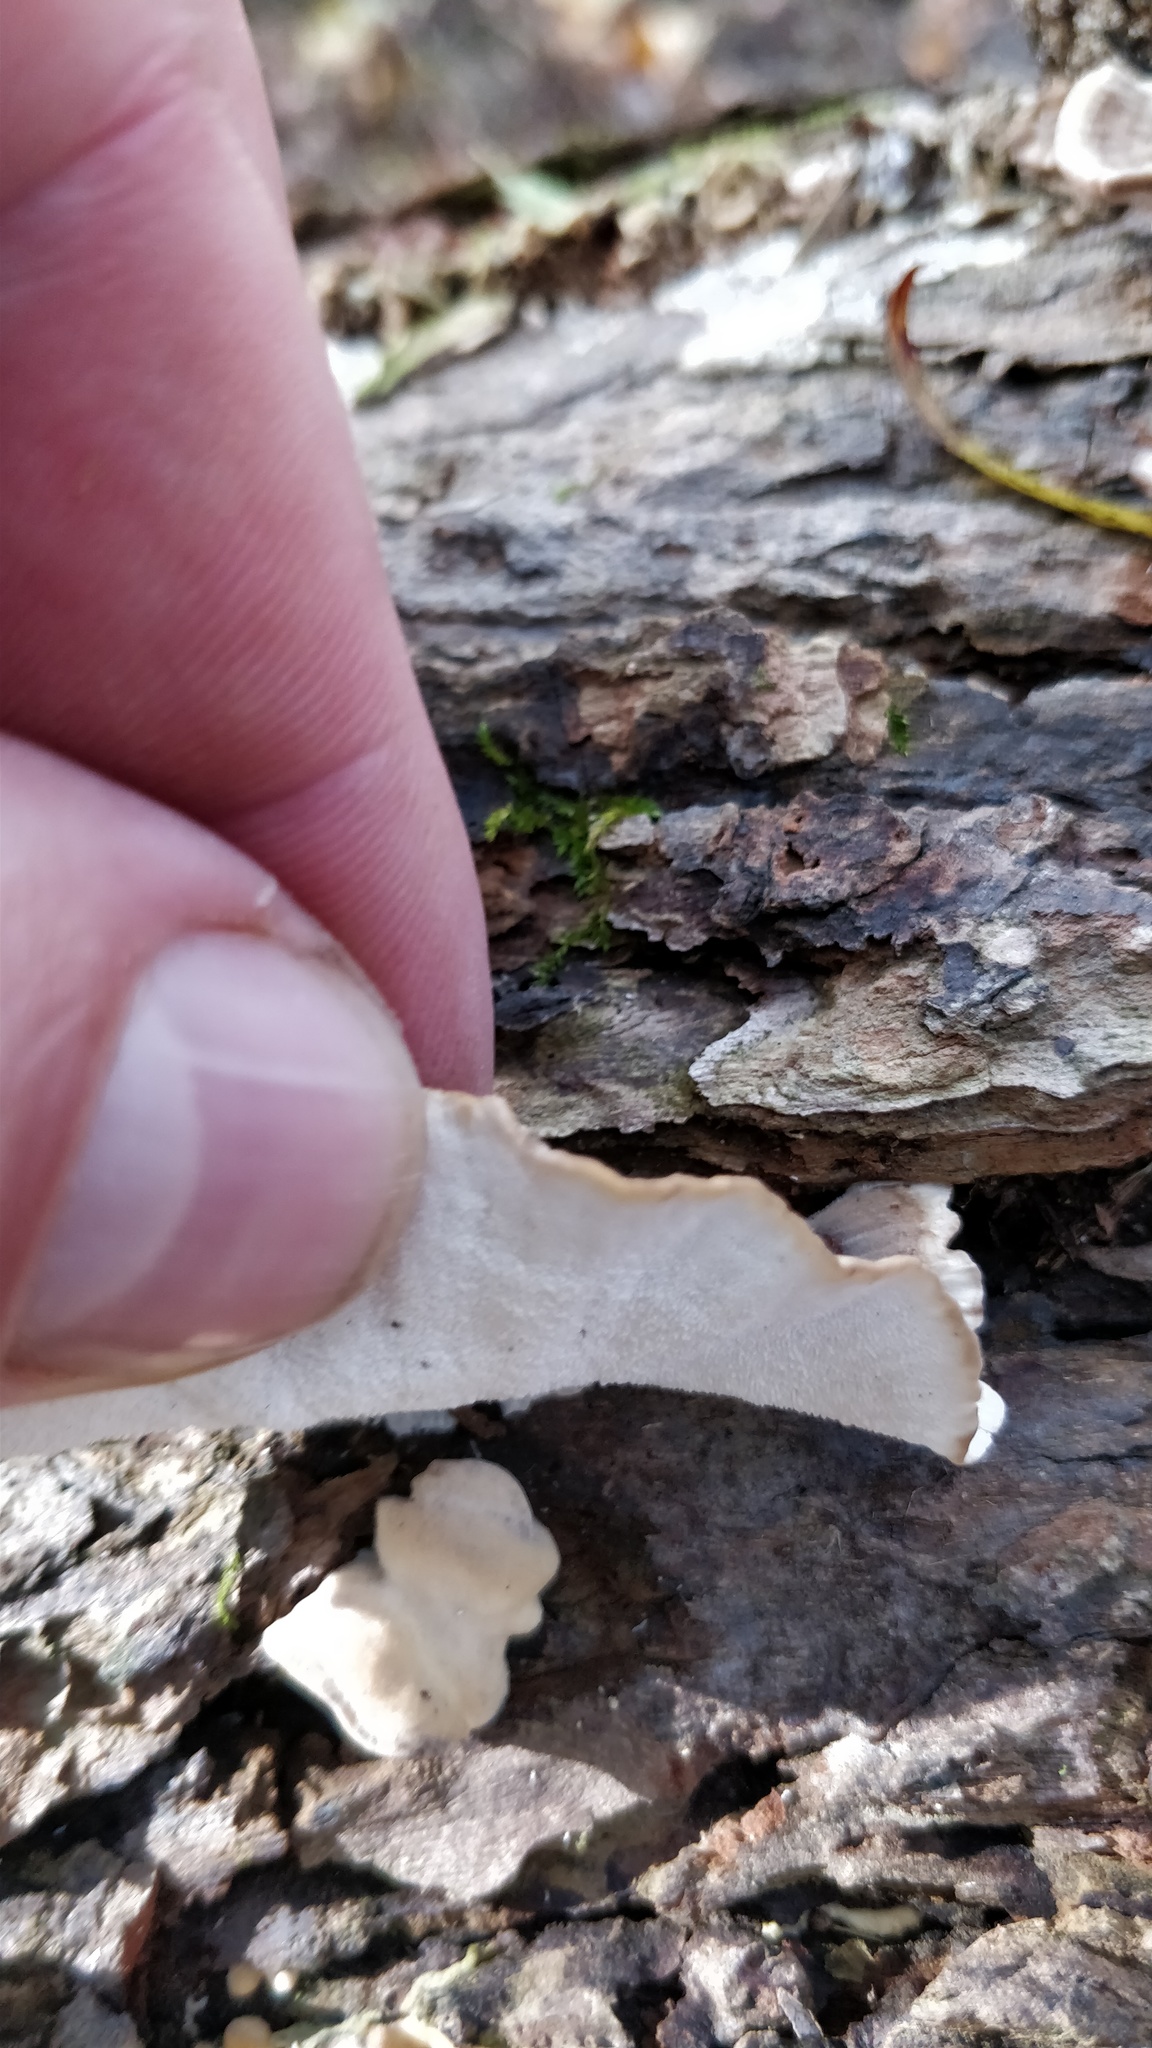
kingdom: Fungi
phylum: Basidiomycota
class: Agaricomycetes
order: Polyporales
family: Polyporaceae
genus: Trametes
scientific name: Trametes versicolor
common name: Turkeytail
